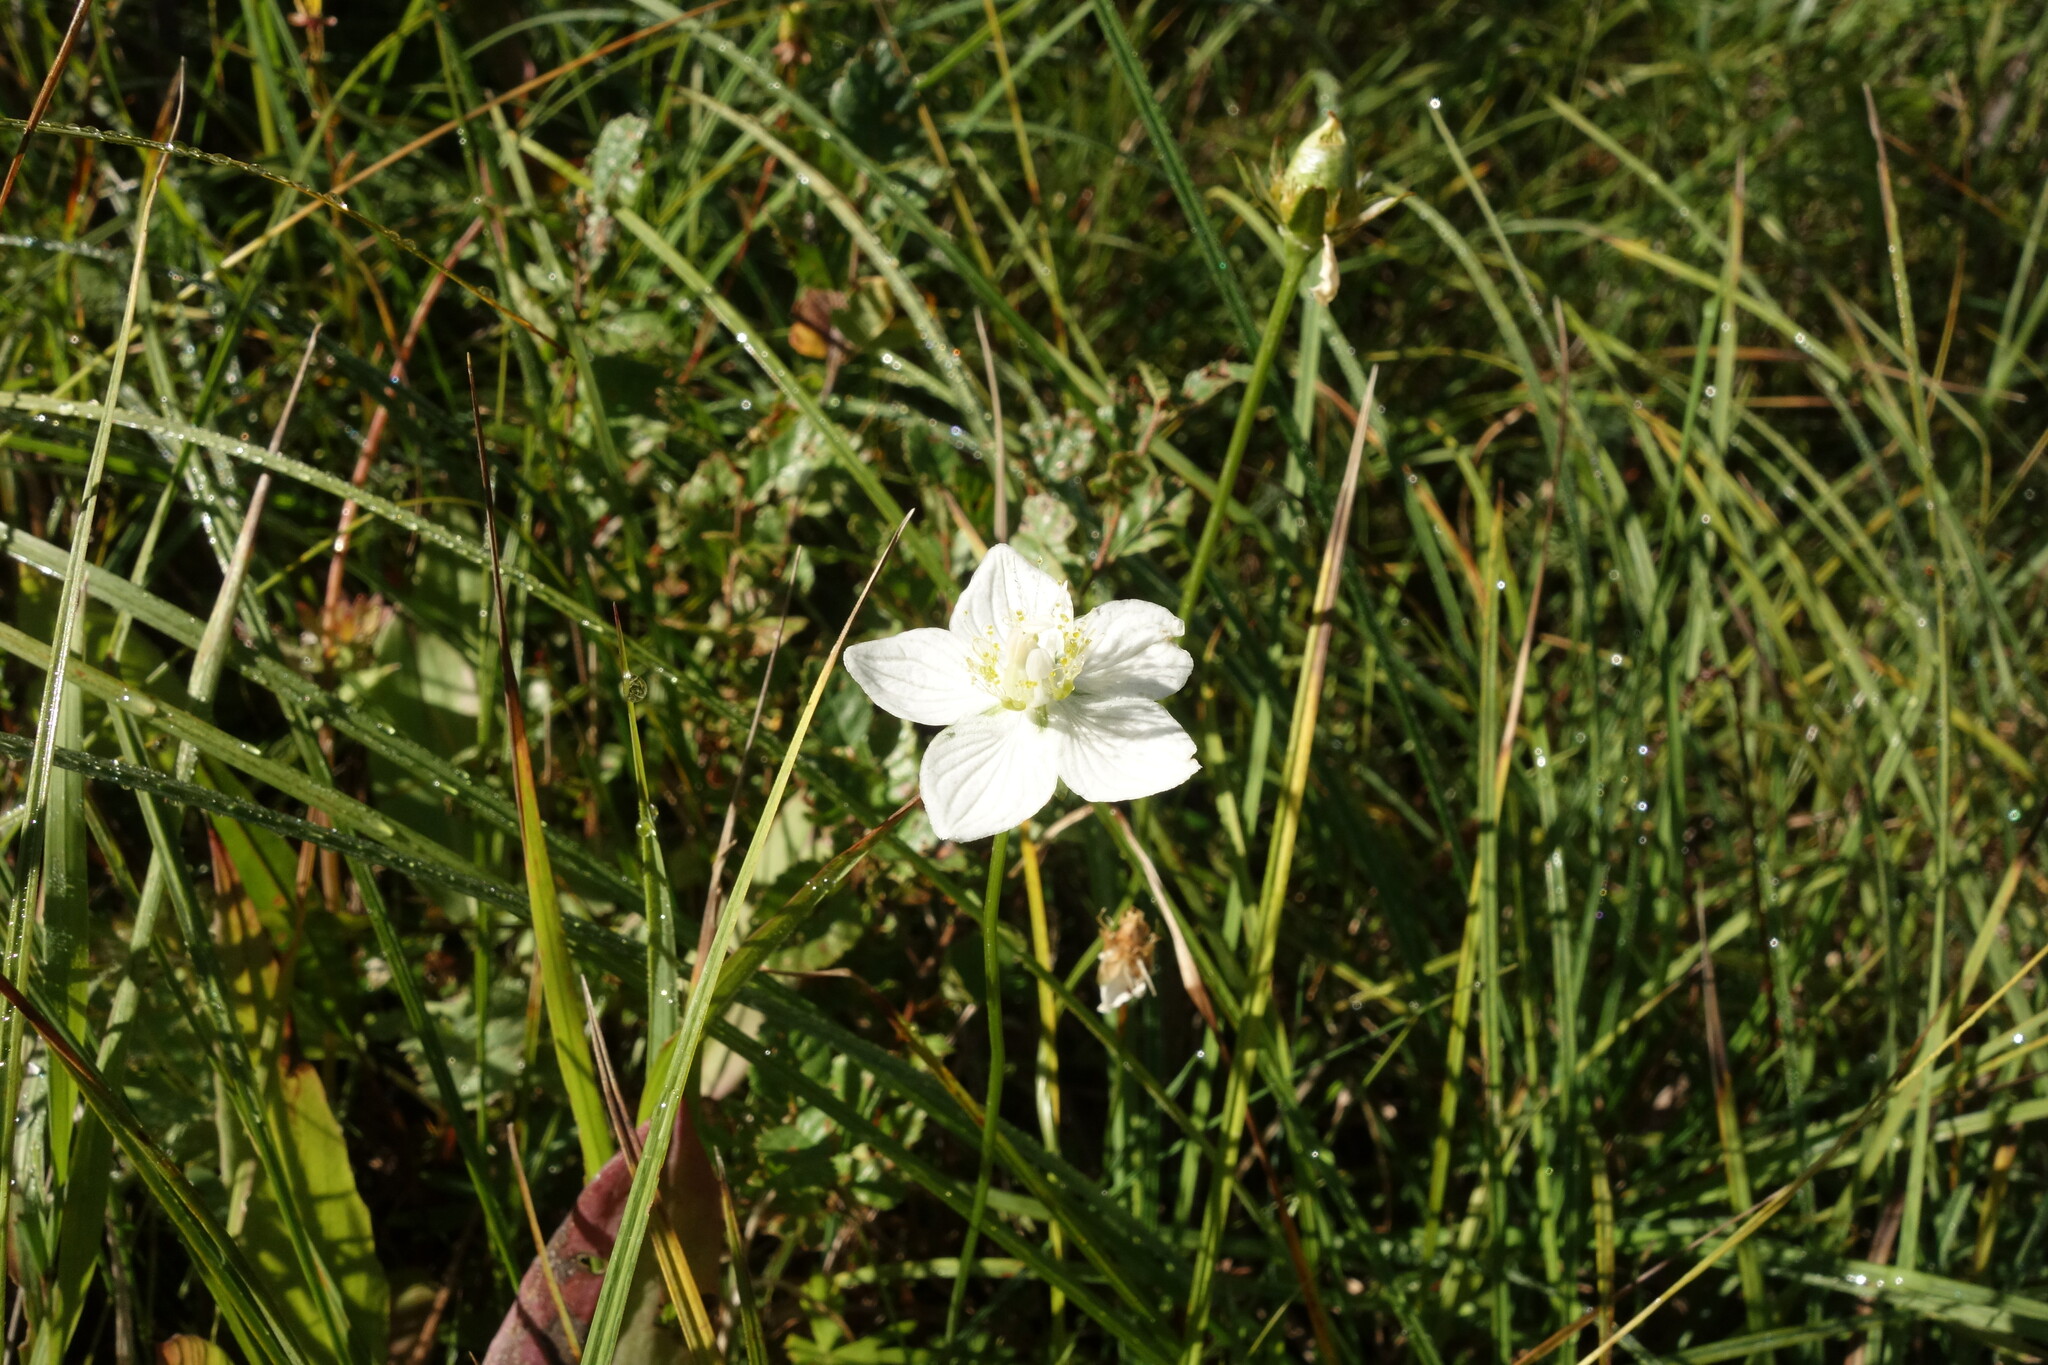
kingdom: Plantae
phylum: Tracheophyta
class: Magnoliopsida
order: Celastrales
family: Parnassiaceae
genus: Parnassia
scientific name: Parnassia palustris
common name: Grass-of-parnassus
